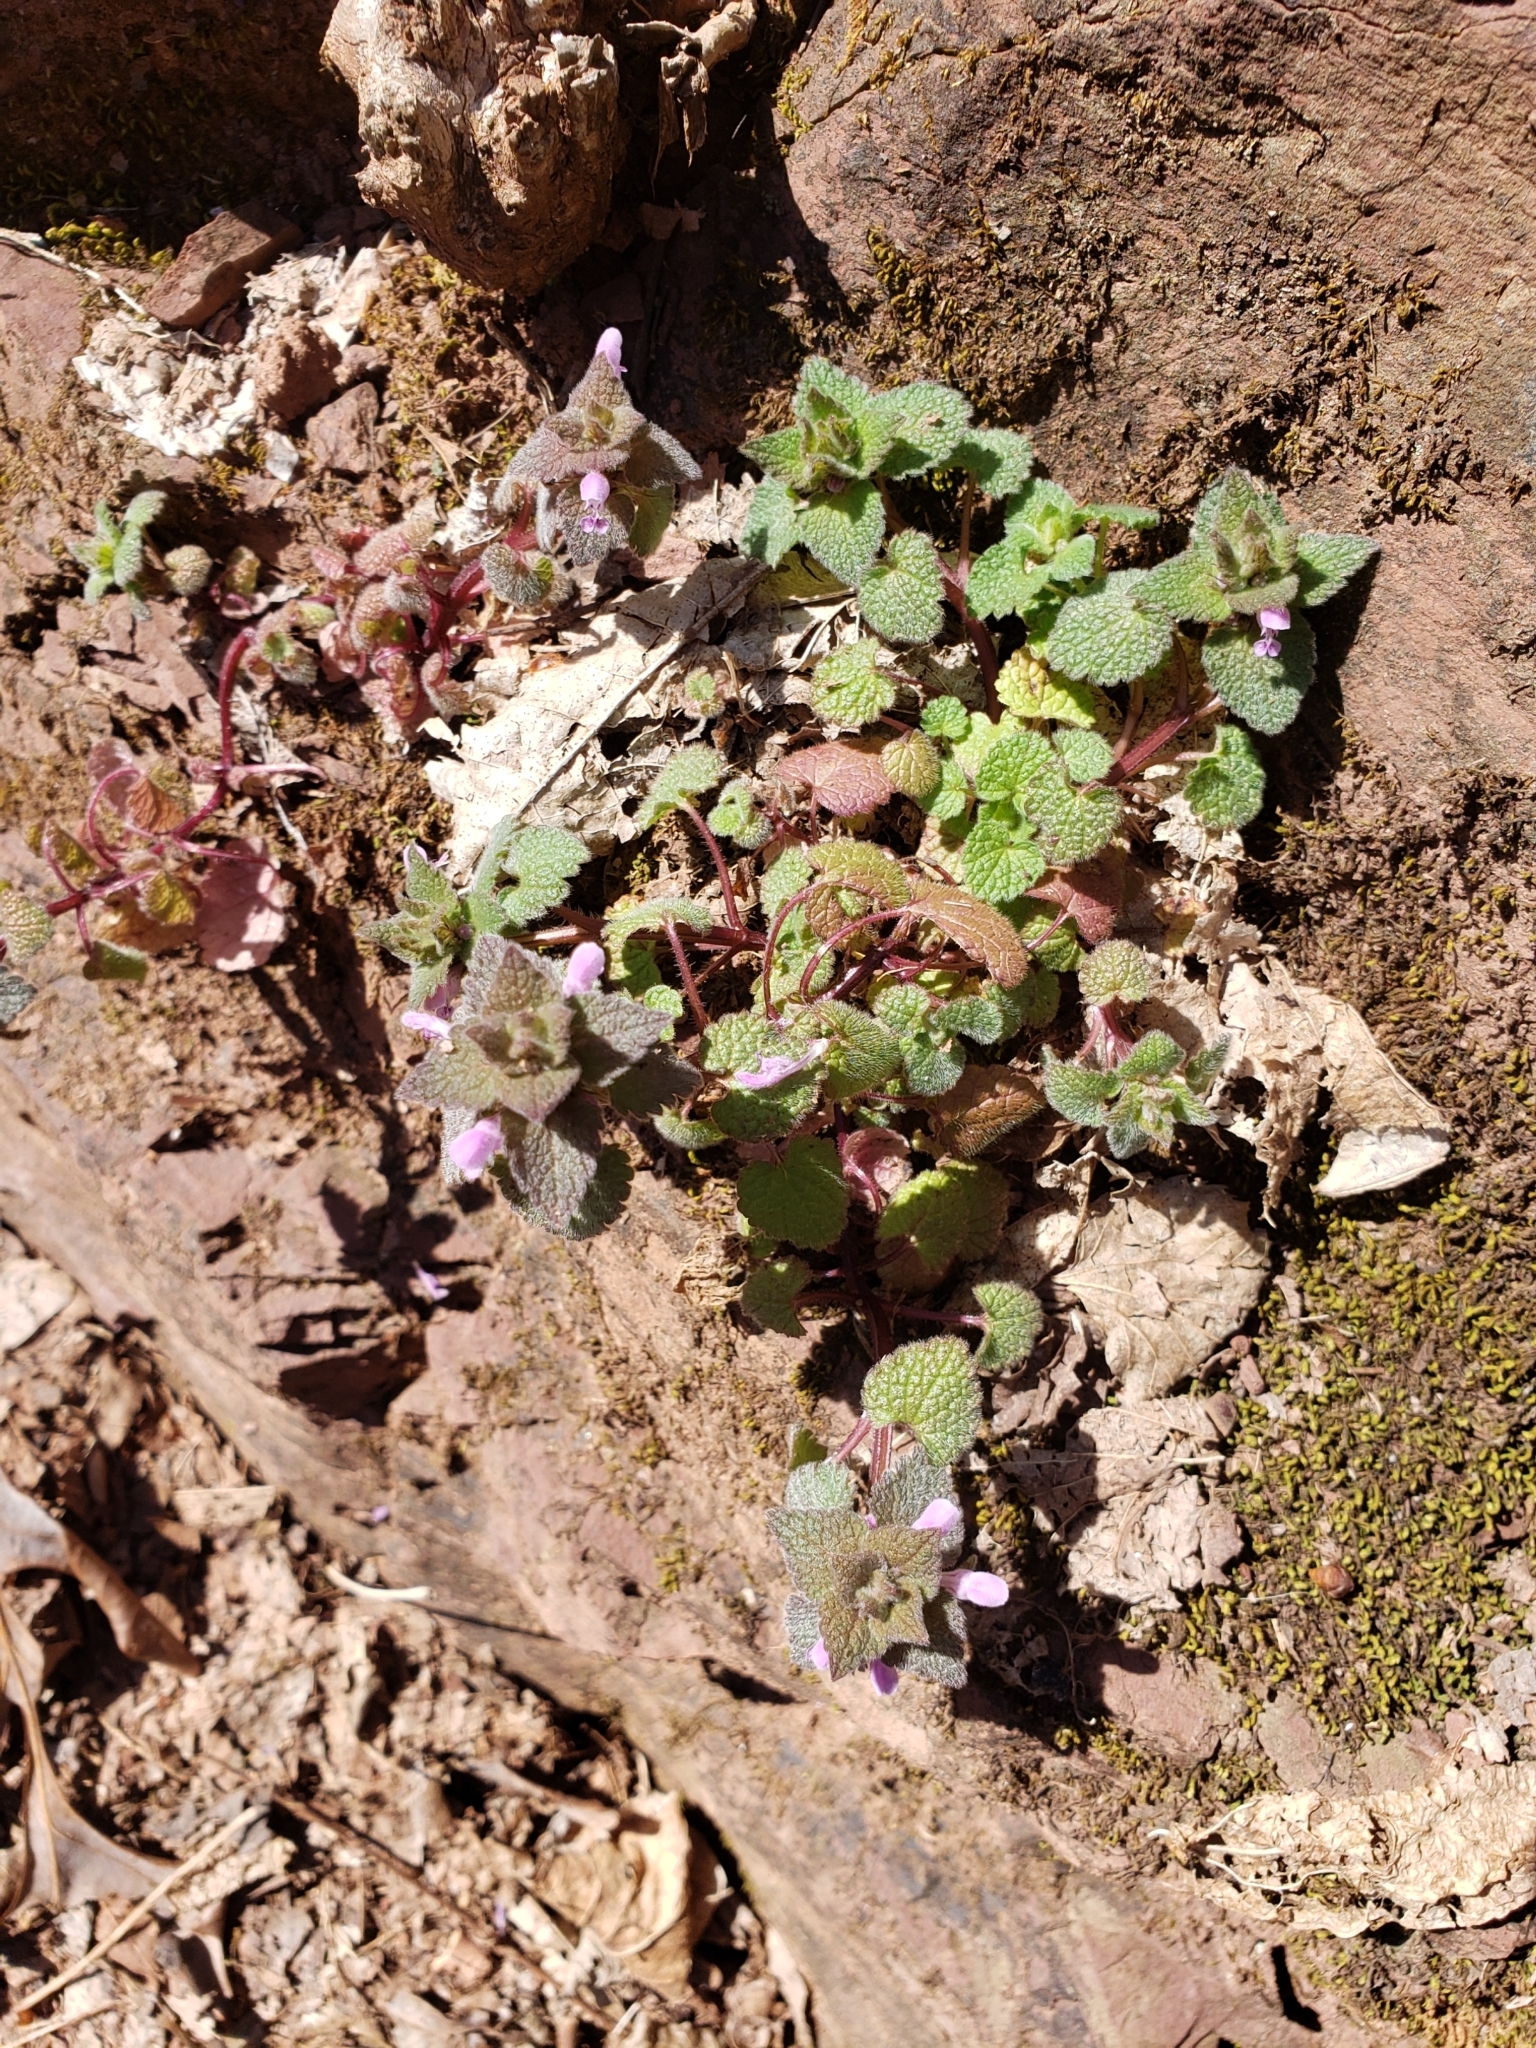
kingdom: Plantae
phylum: Tracheophyta
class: Magnoliopsida
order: Lamiales
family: Lamiaceae
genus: Lamium
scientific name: Lamium purpureum
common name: Red dead-nettle
